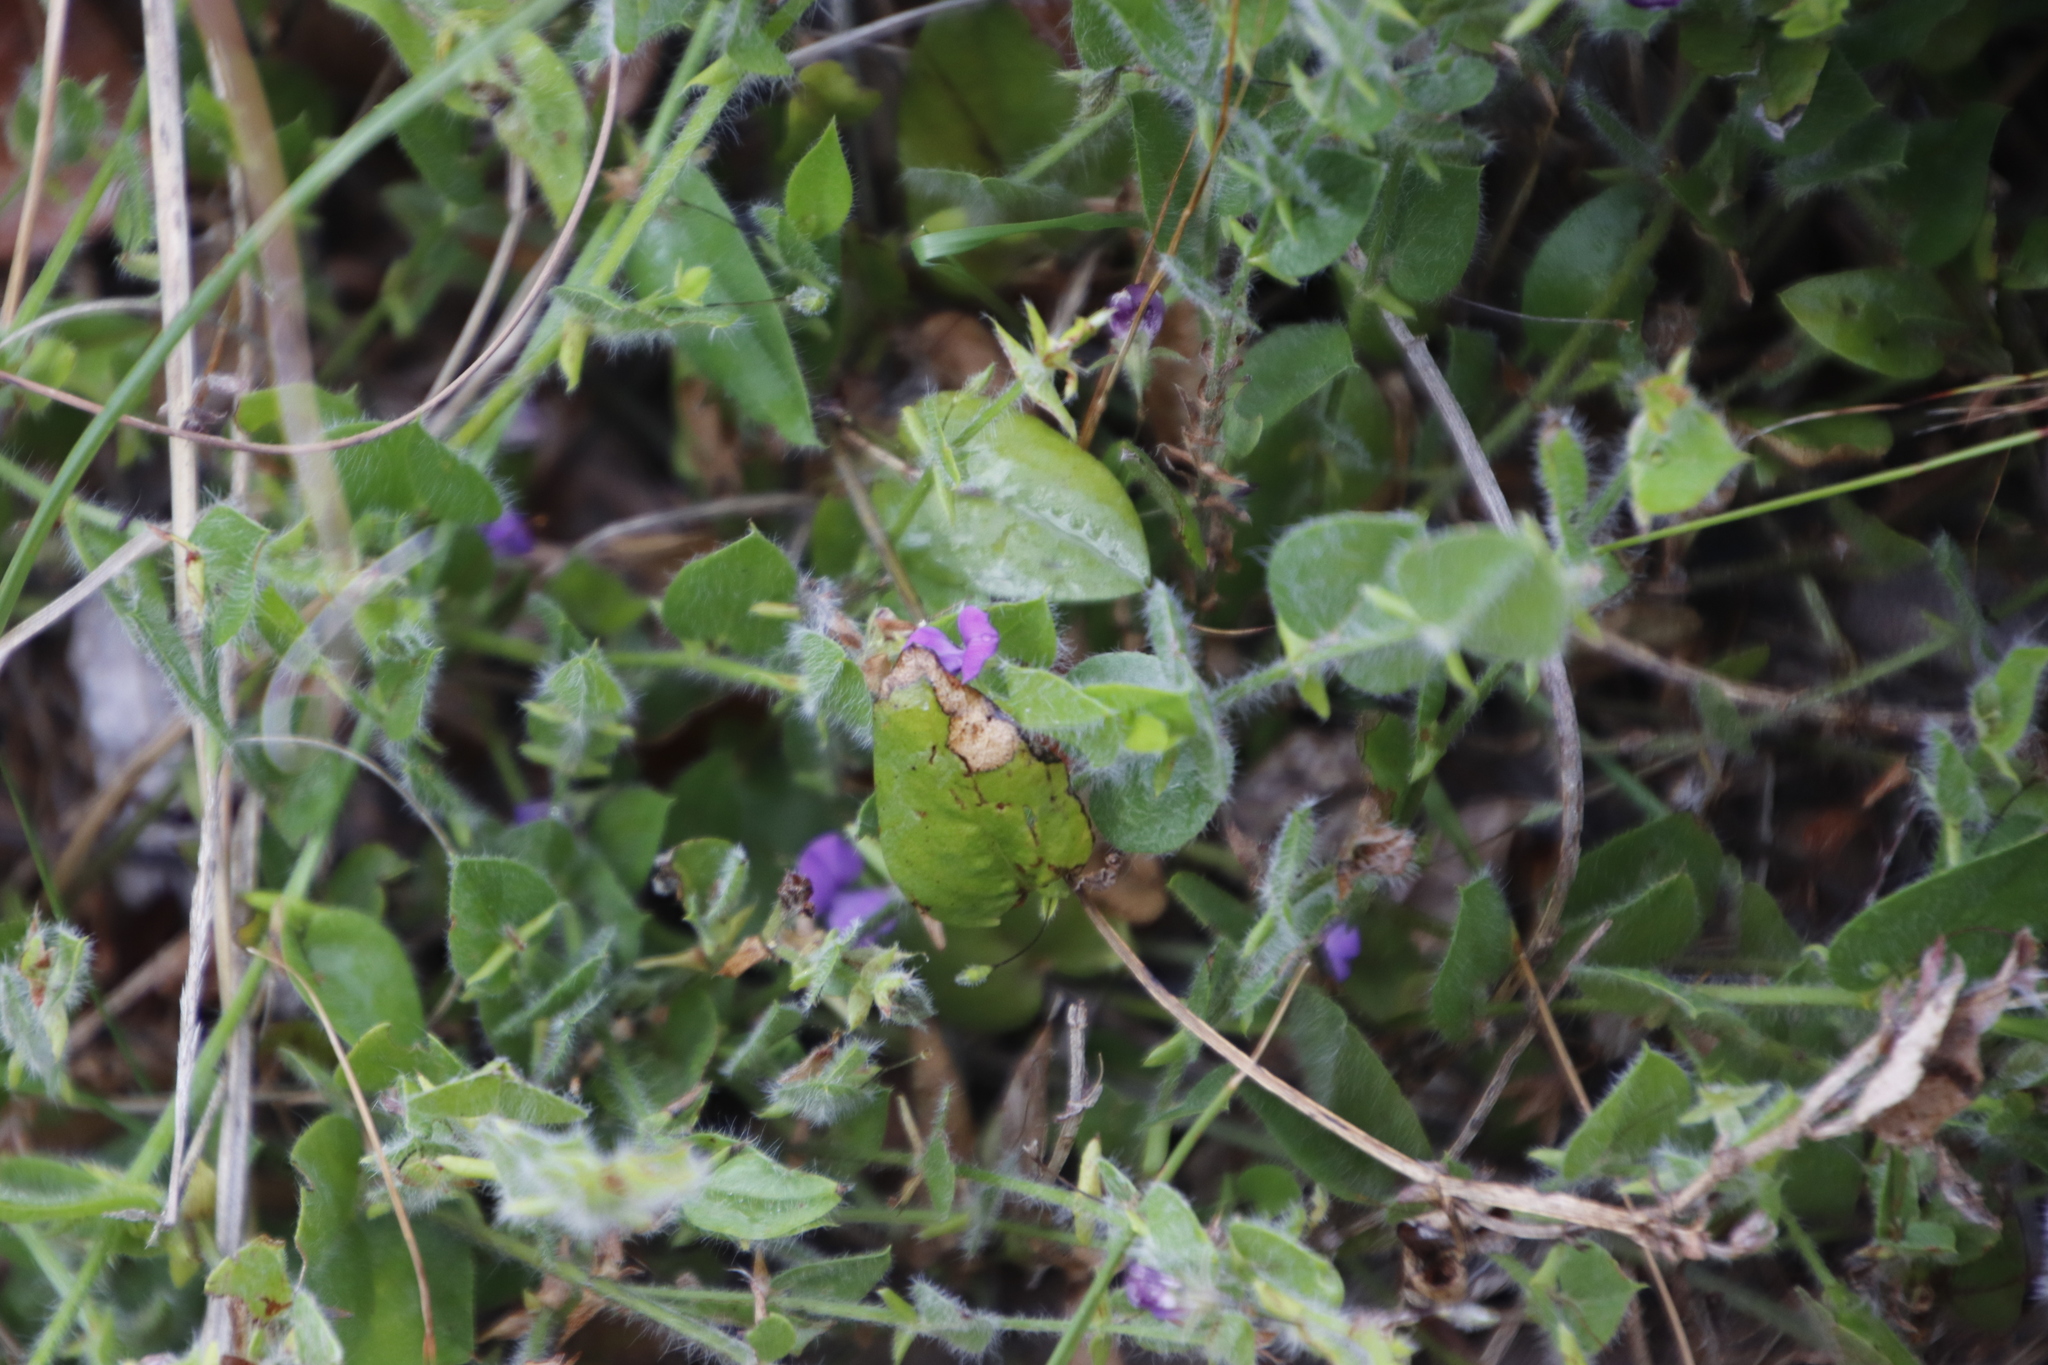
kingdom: Plantae
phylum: Tracheophyta
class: Magnoliopsida
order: Fabales
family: Fabaceae
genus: Psoralea
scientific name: Psoralea asarina
